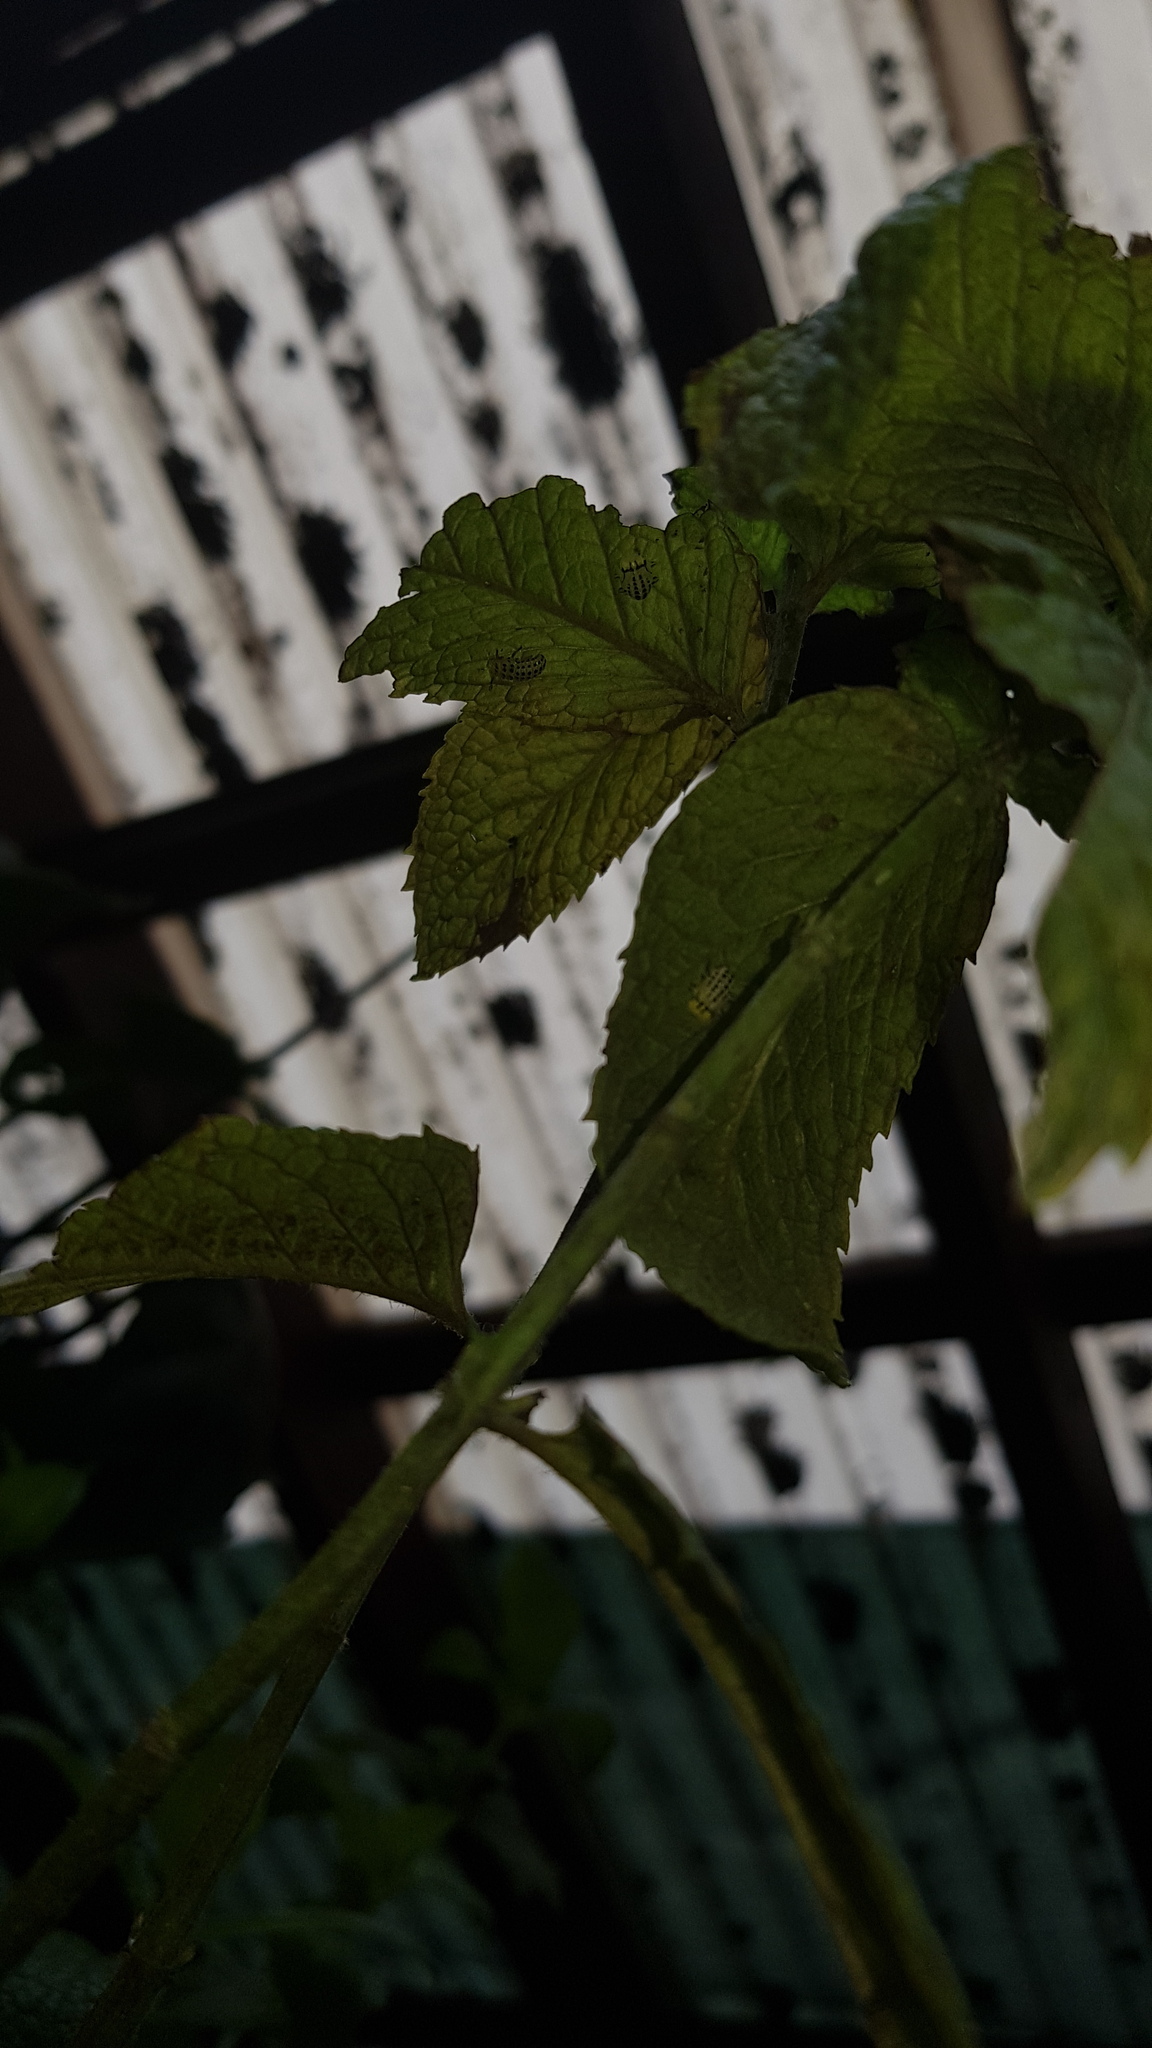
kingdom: Animalia
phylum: Arthropoda
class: Insecta
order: Coleoptera
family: Coccinellidae
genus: Illeis
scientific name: Illeis galbula
